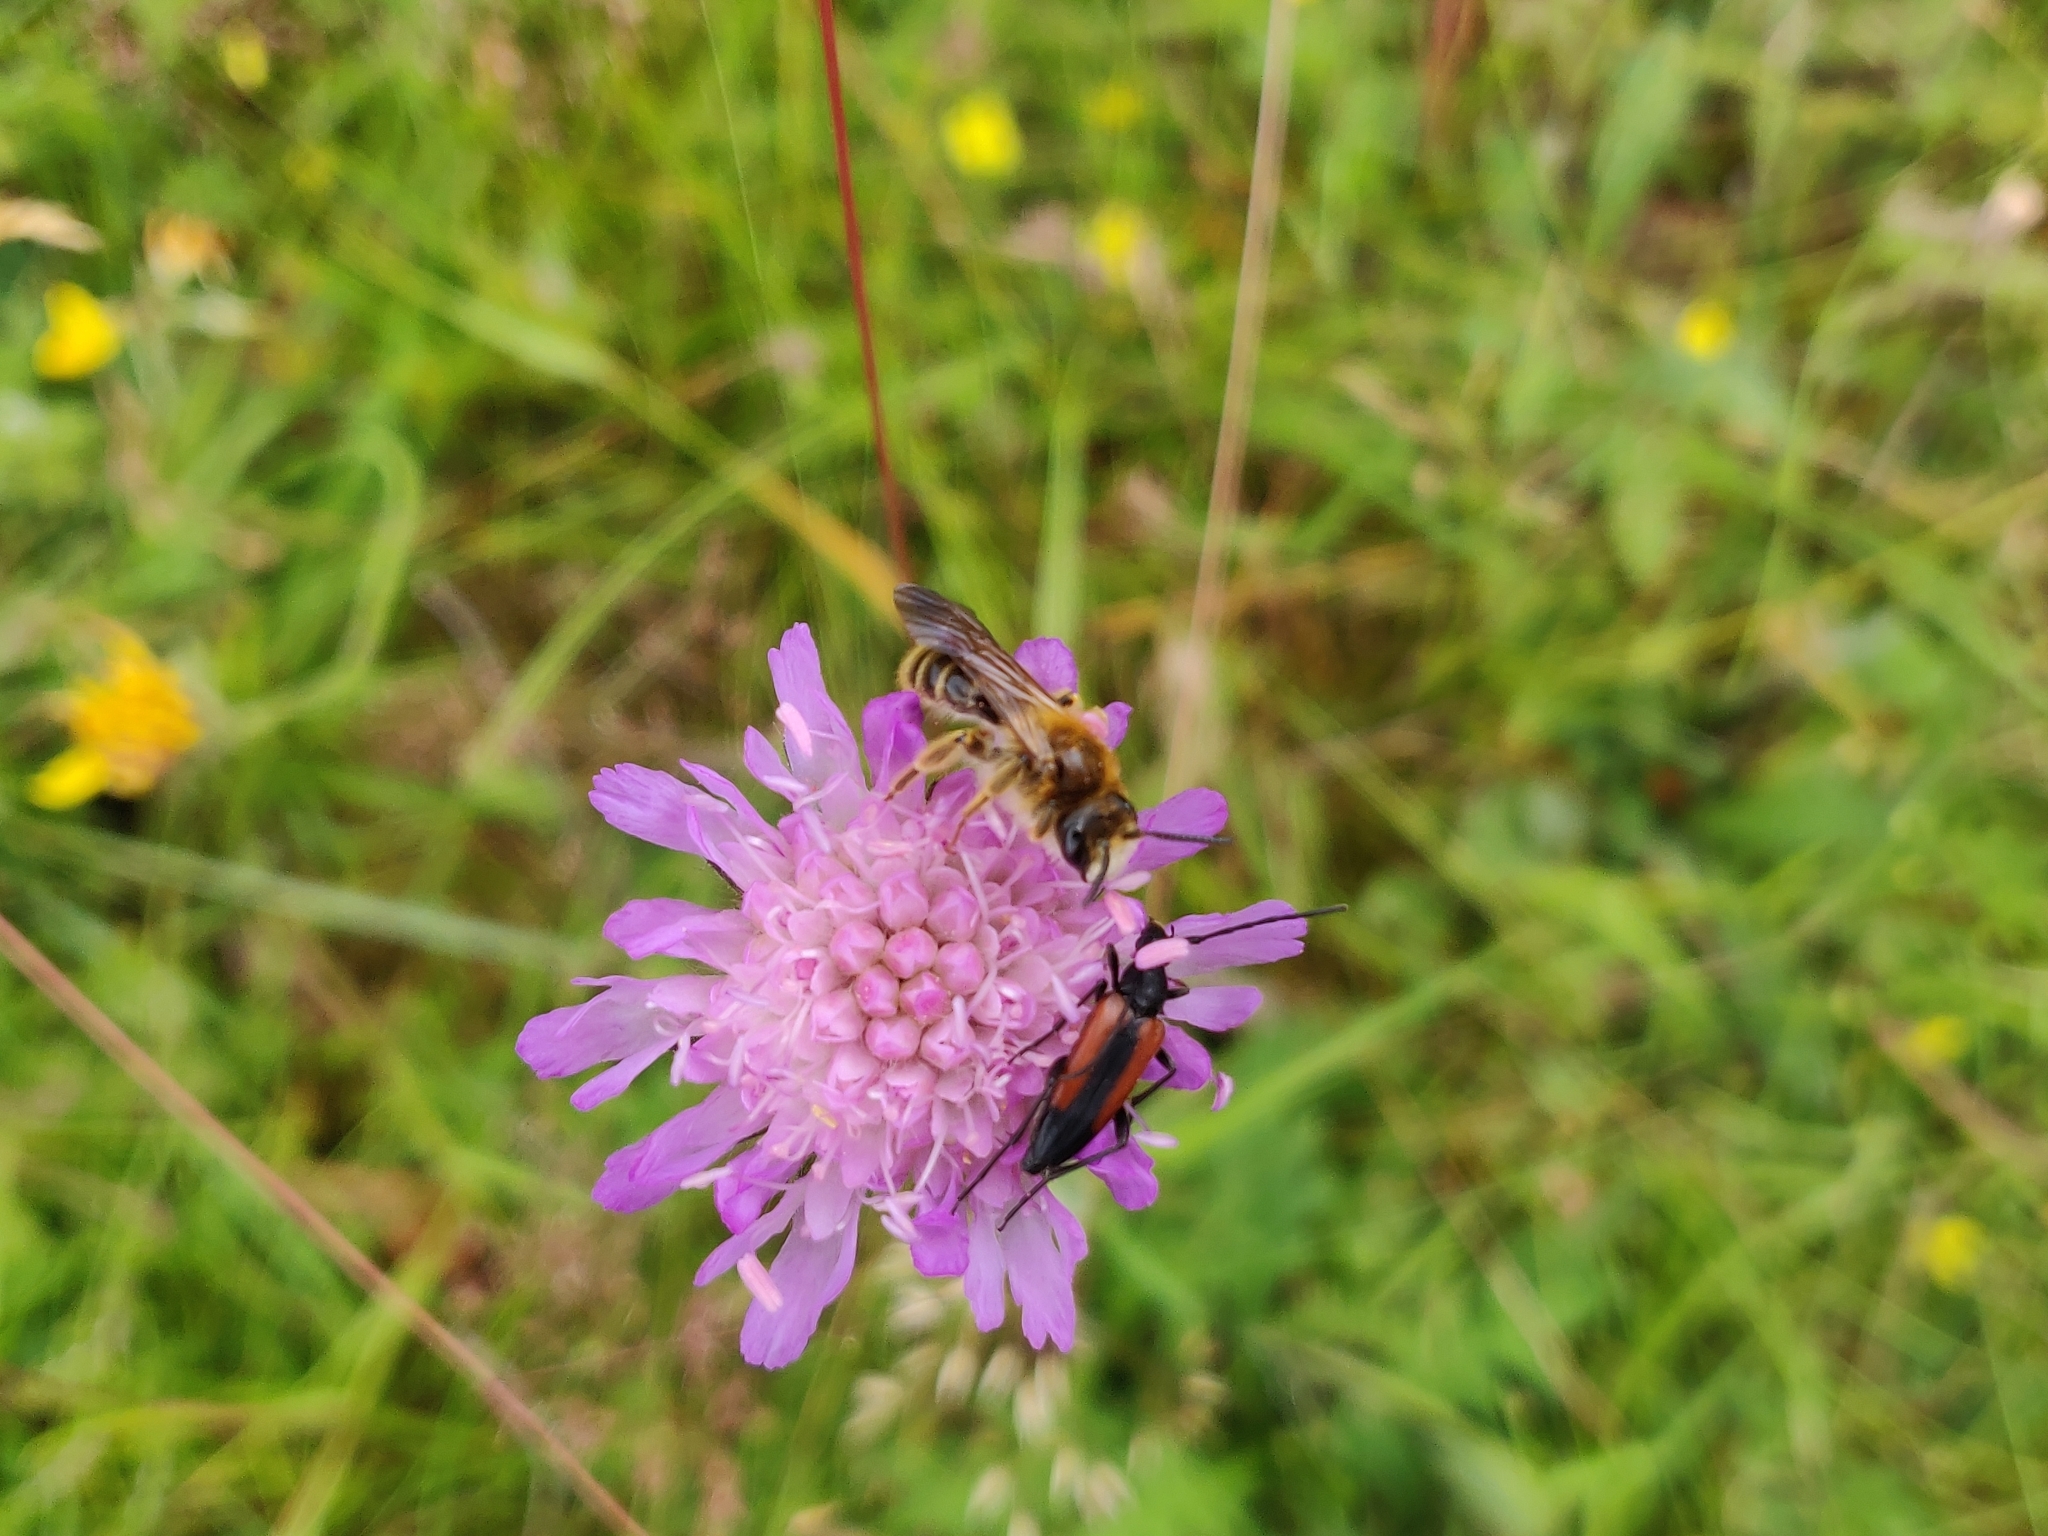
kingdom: Animalia
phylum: Arthropoda
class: Insecta
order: Hymenoptera
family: Andrenidae
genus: Andrena
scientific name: Andrena hattorfiana
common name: Large scabious mining bee
